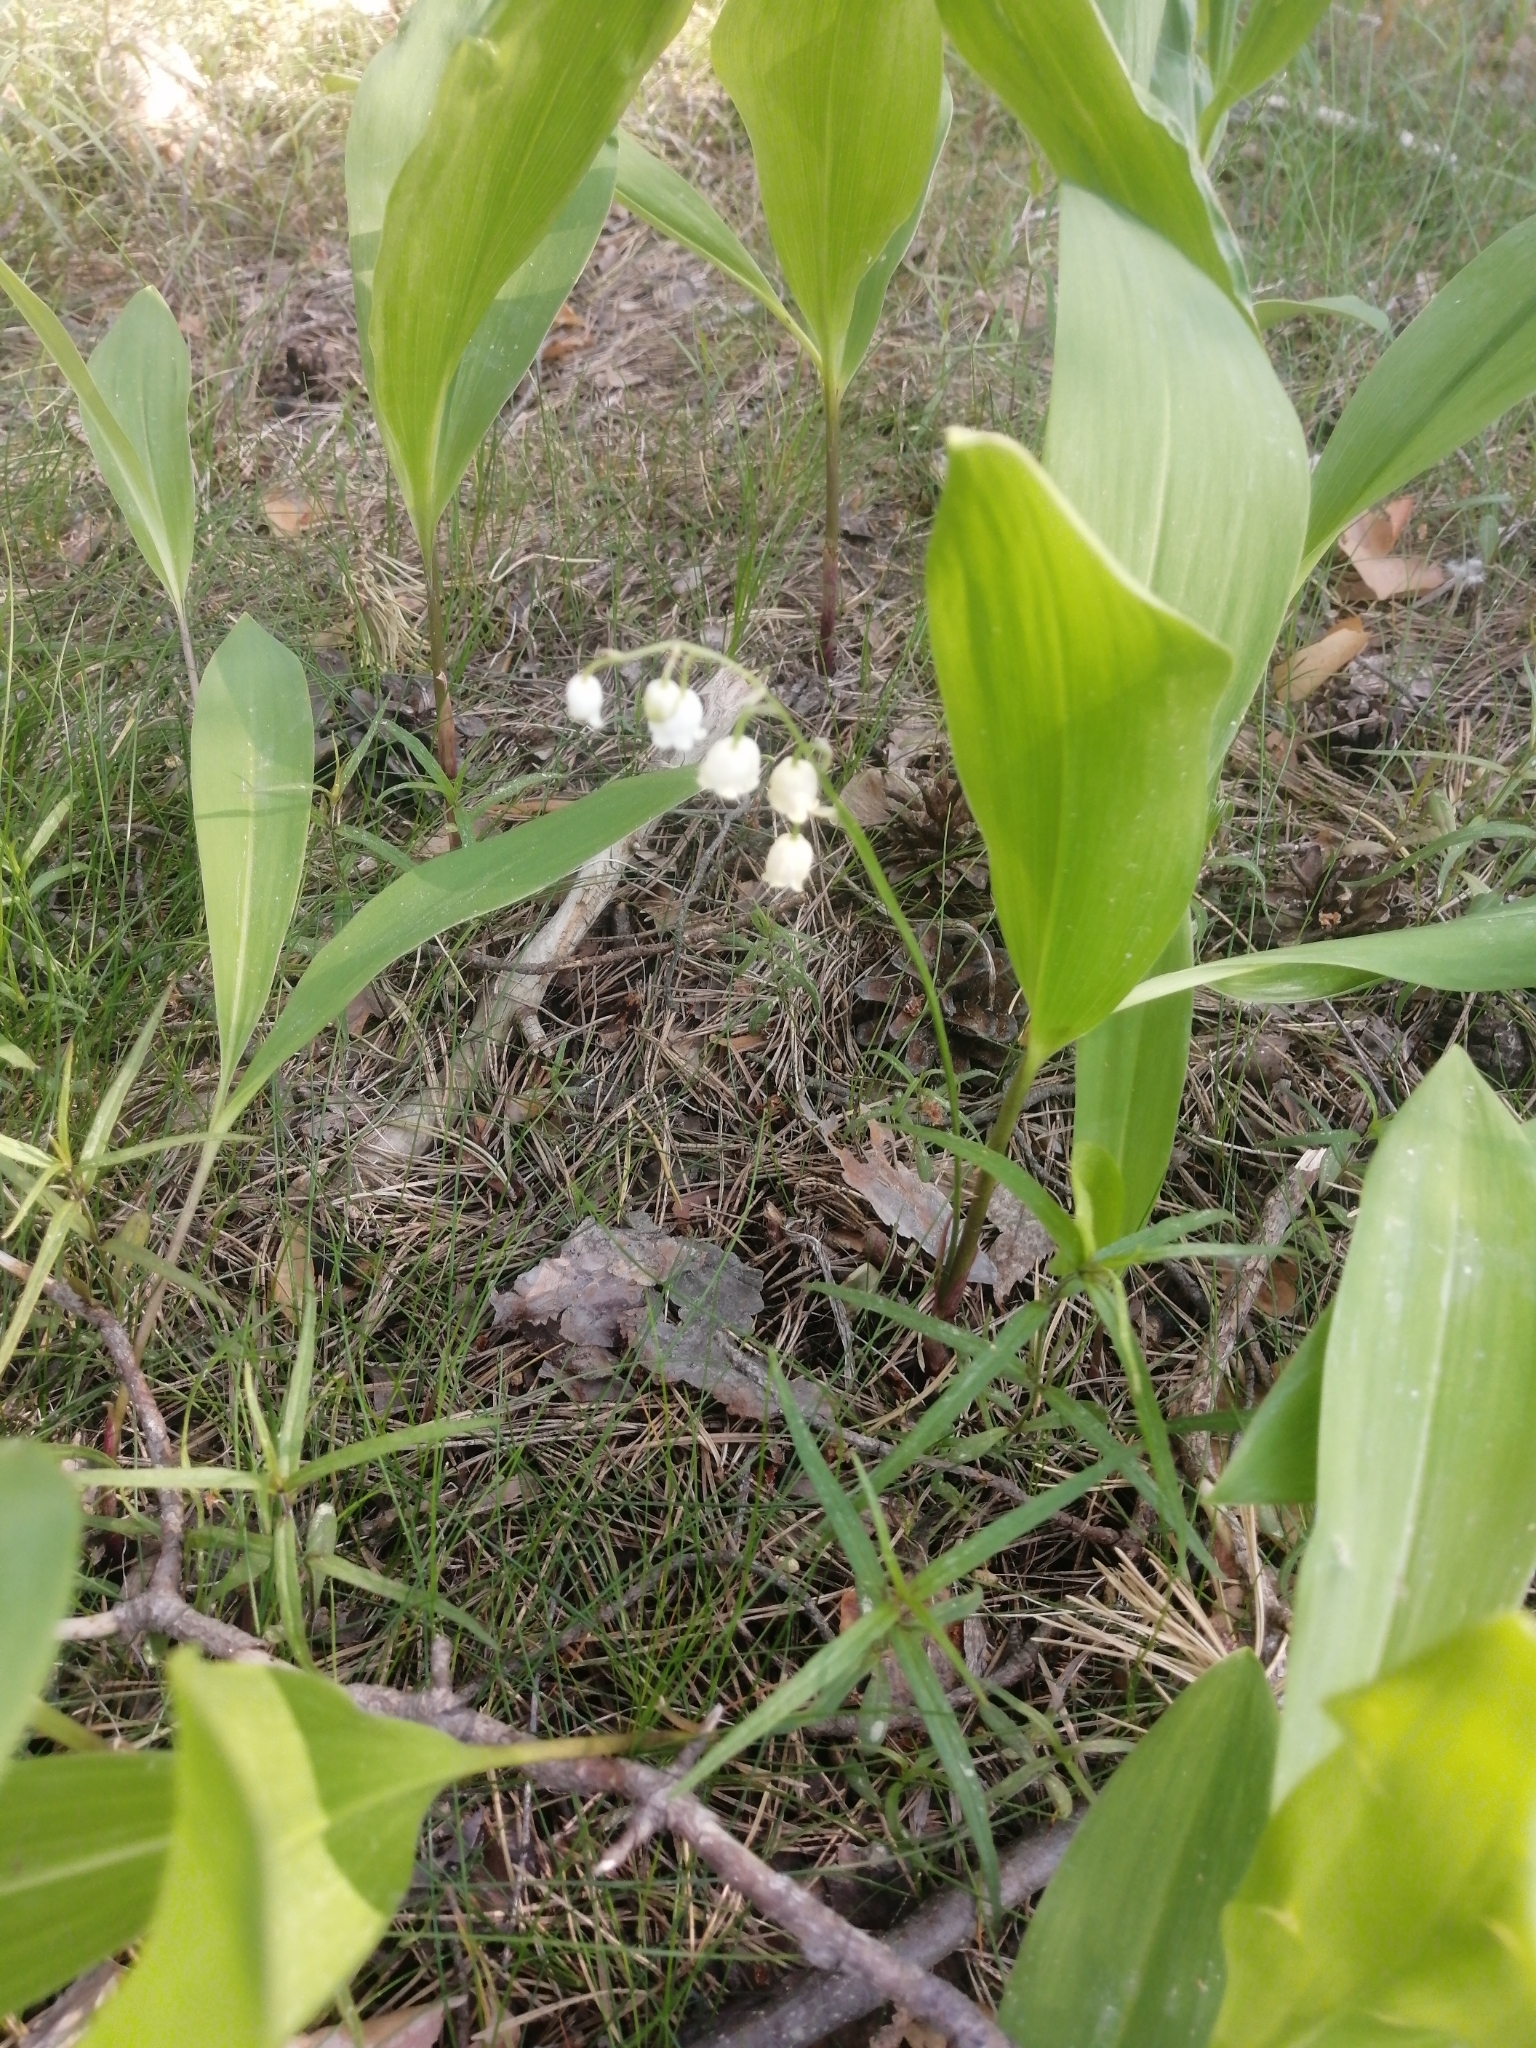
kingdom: Plantae
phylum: Tracheophyta
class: Liliopsida
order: Asparagales
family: Asparagaceae
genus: Convallaria
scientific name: Convallaria majalis
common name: Lily-of-the-valley
